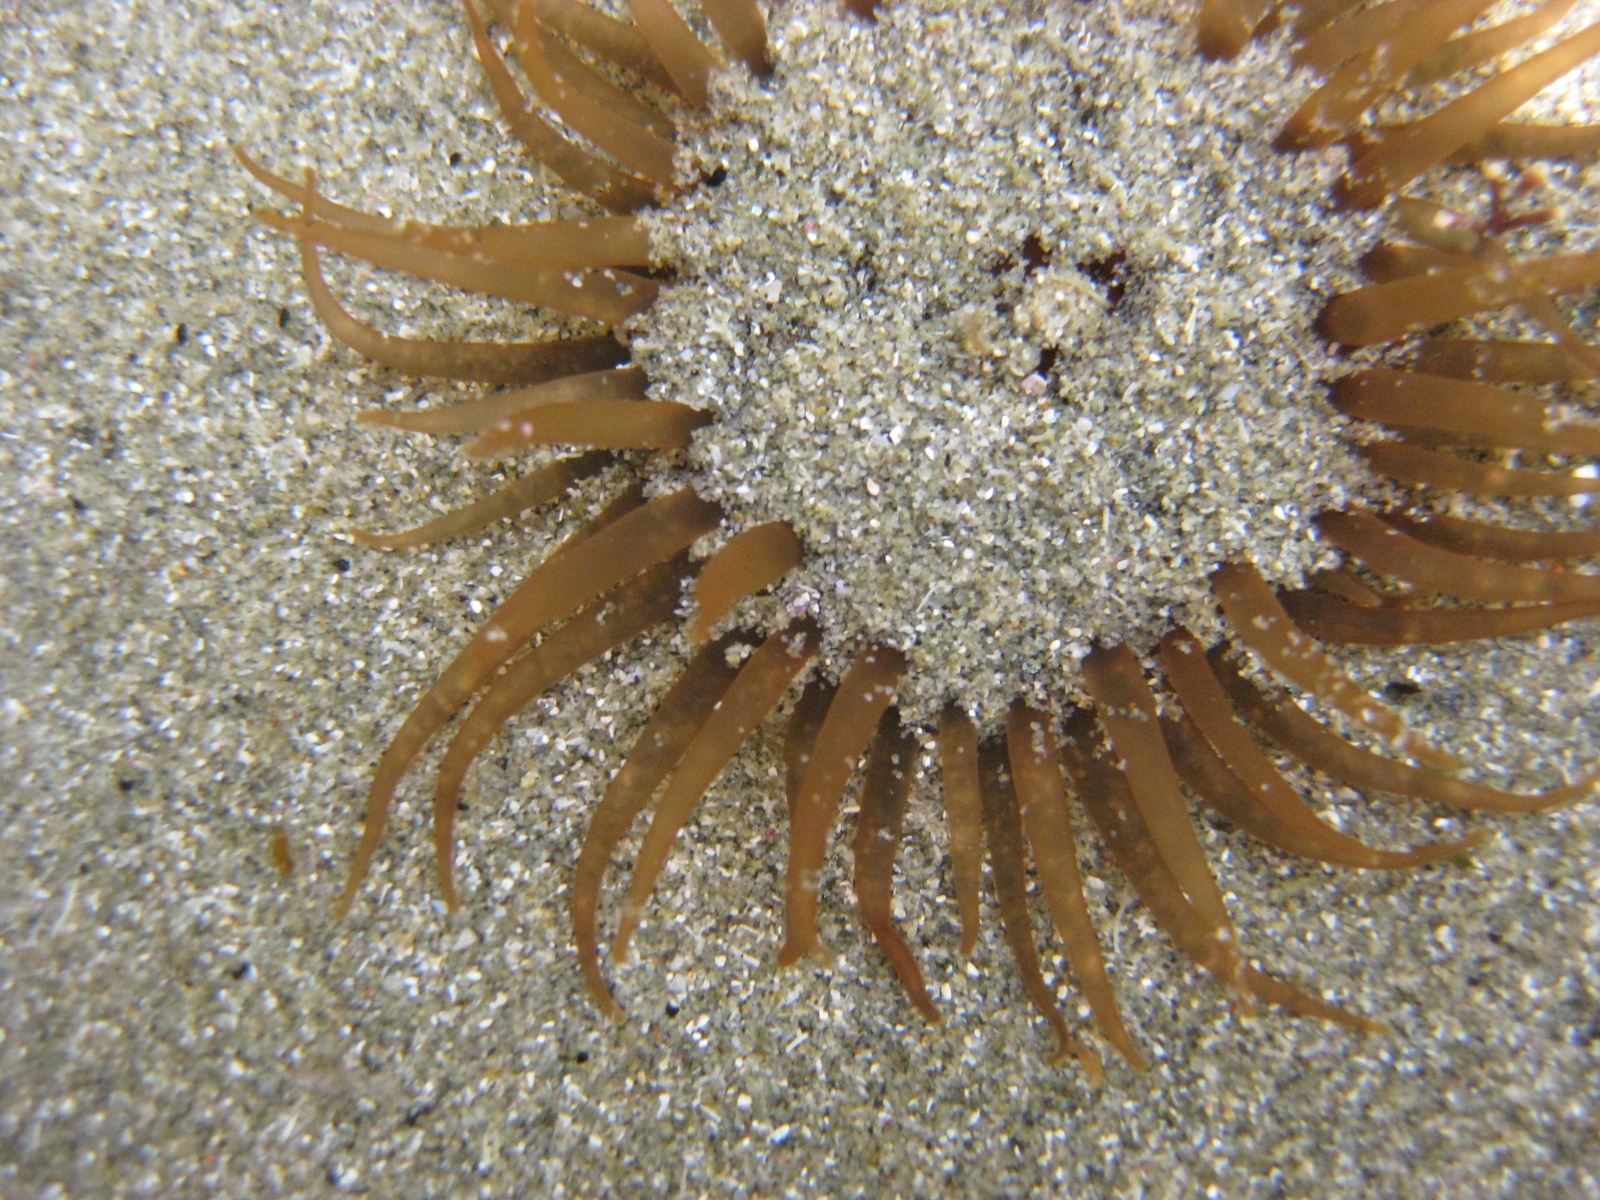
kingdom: Animalia
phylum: Cnidaria
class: Anthozoa
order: Actiniaria
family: Actiniidae
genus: Isactinia
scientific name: Isactinia olivacea
